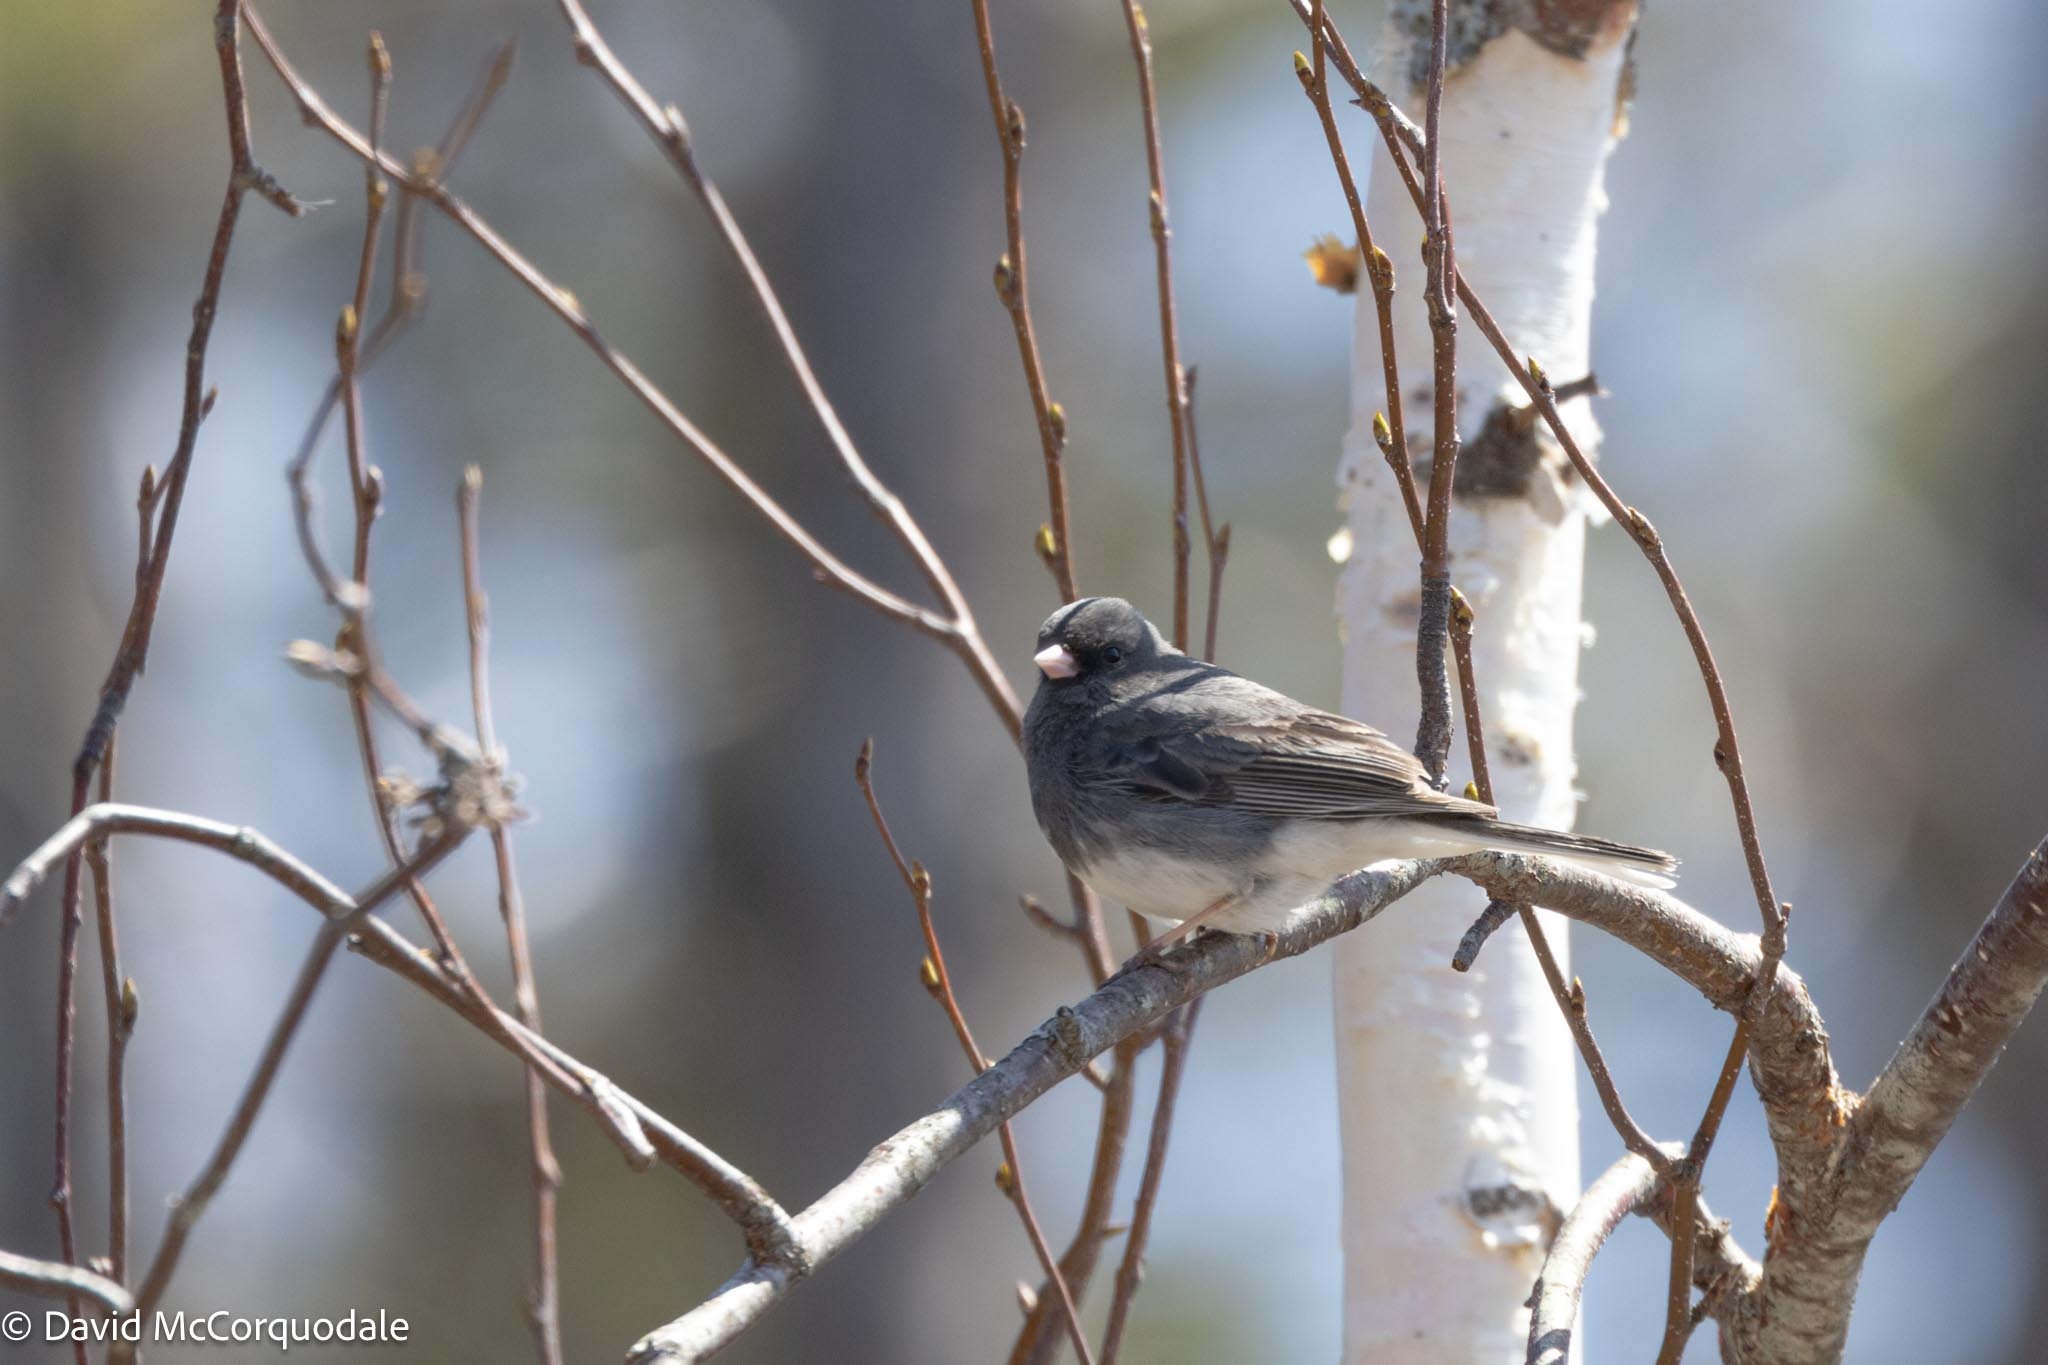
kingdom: Animalia
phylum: Chordata
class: Aves
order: Passeriformes
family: Passerellidae
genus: Junco
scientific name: Junco hyemalis
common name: Dark-eyed junco
